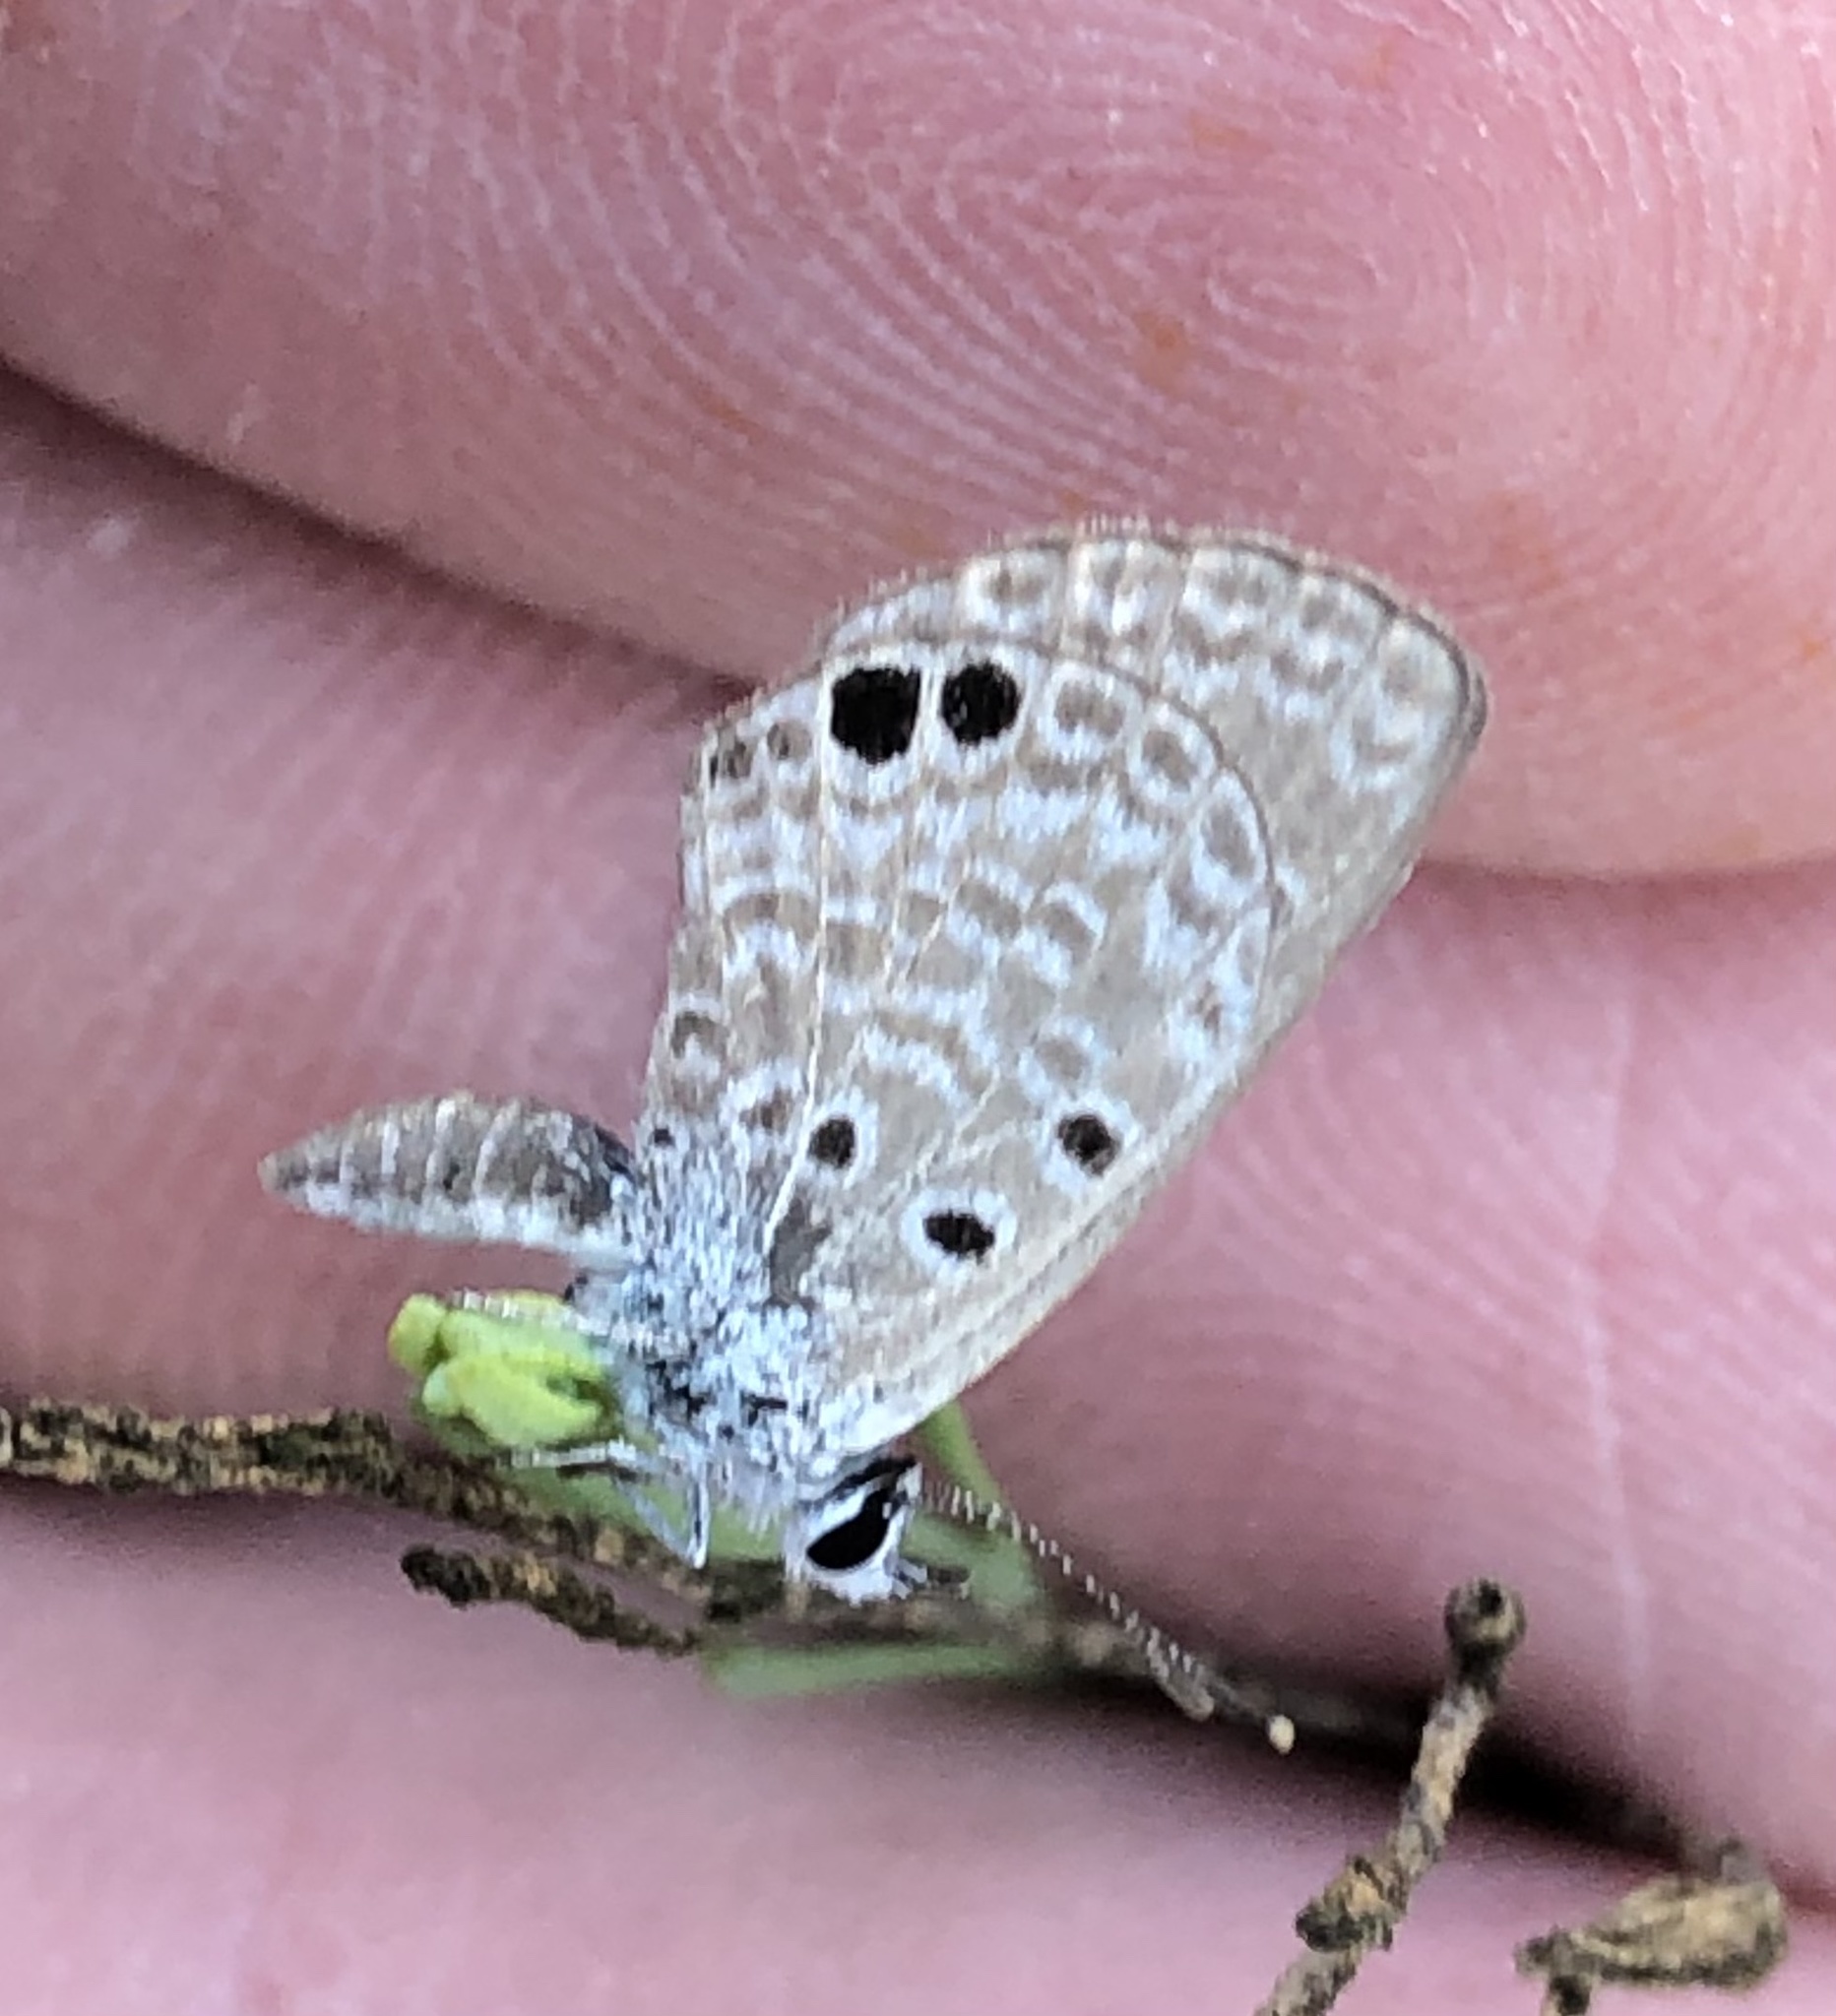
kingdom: Animalia
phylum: Arthropoda
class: Insecta
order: Lepidoptera
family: Lycaenidae
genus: Hemiargus
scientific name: Hemiargus ceraunus
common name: Ceraunus blue
